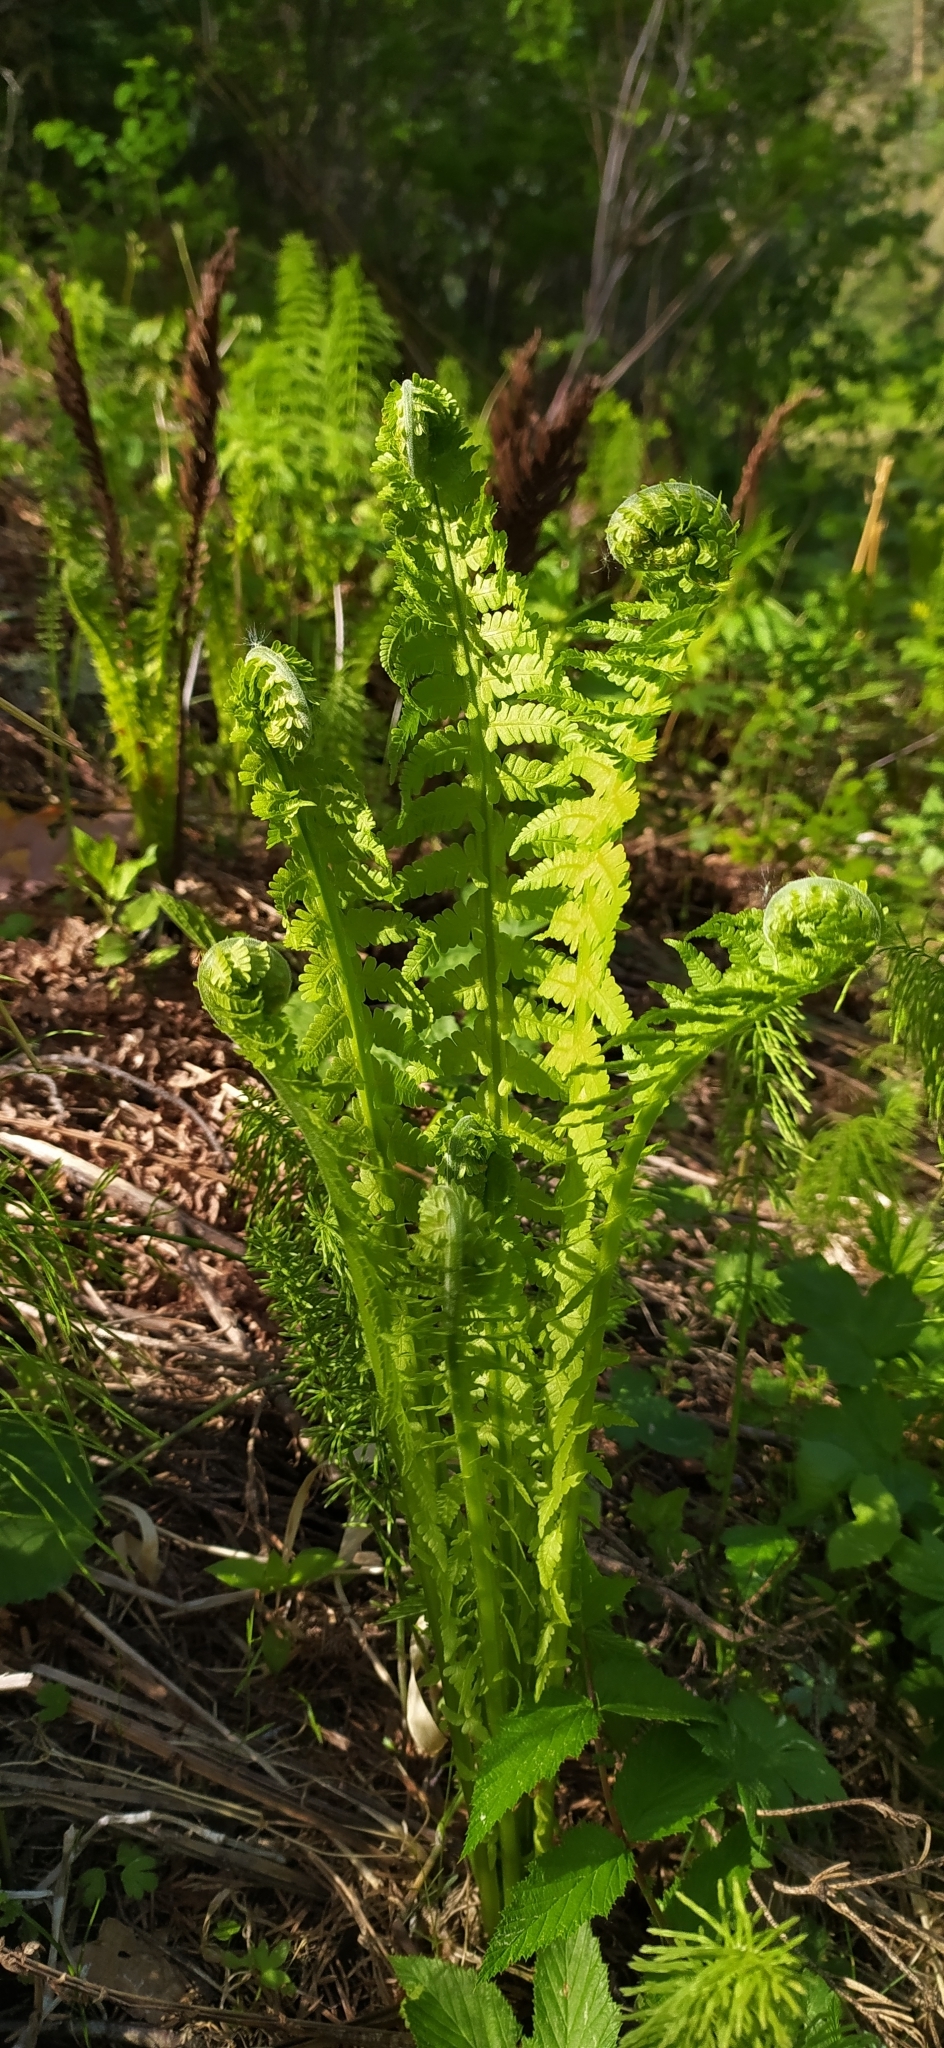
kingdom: Plantae
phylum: Tracheophyta
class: Polypodiopsida
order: Polypodiales
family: Onocleaceae
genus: Matteuccia
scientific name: Matteuccia struthiopteris
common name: Ostrich fern
